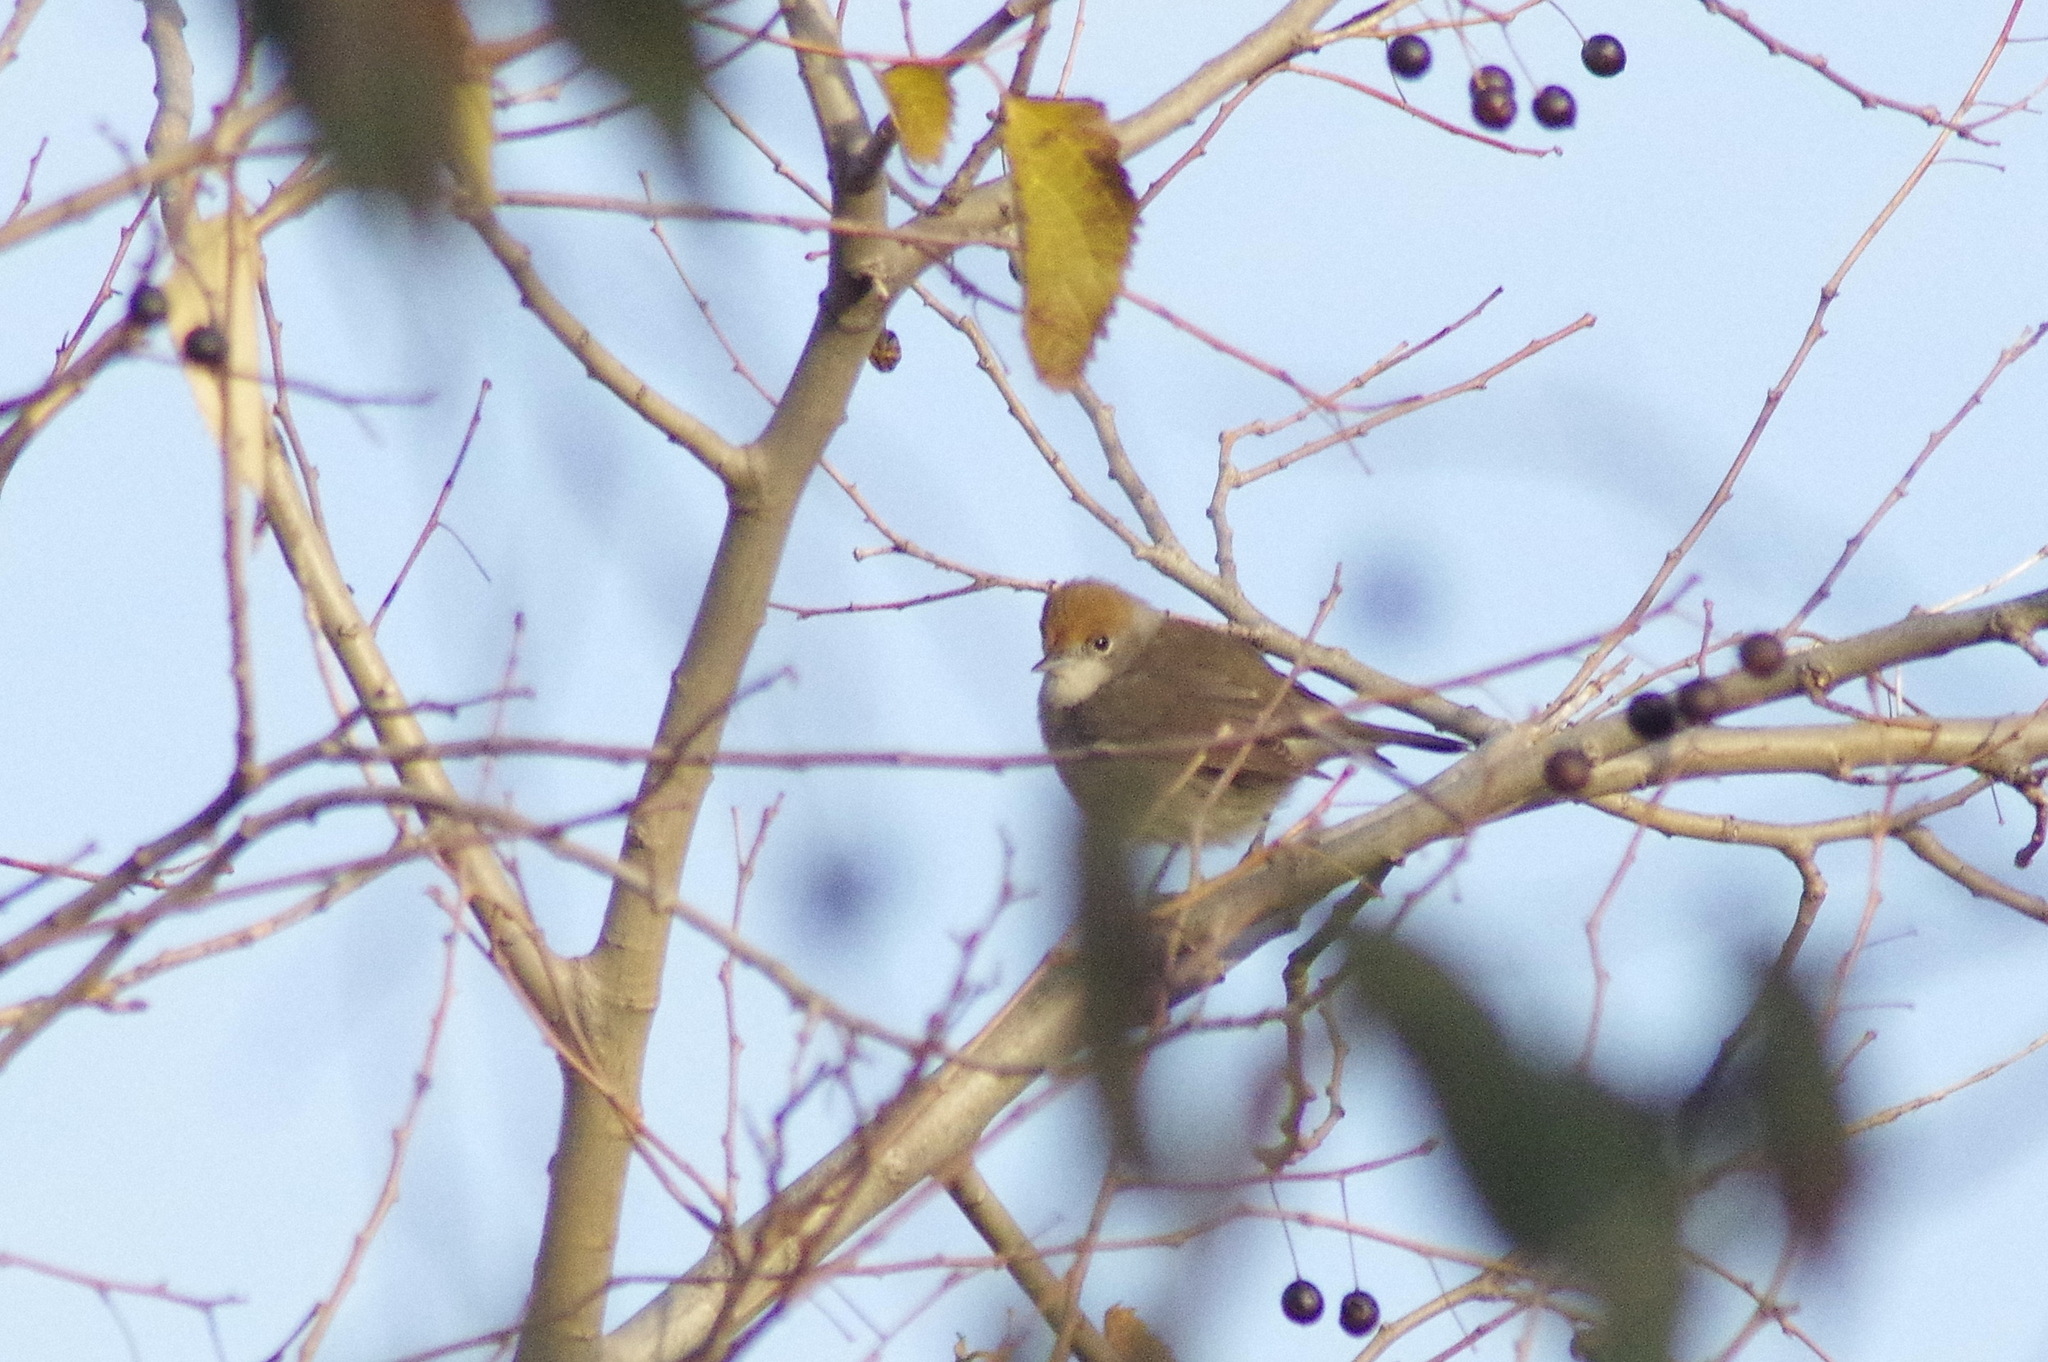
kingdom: Animalia
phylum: Chordata
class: Aves
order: Passeriformes
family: Sylviidae
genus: Sylvia
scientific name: Sylvia atricapilla
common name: Eurasian blackcap
